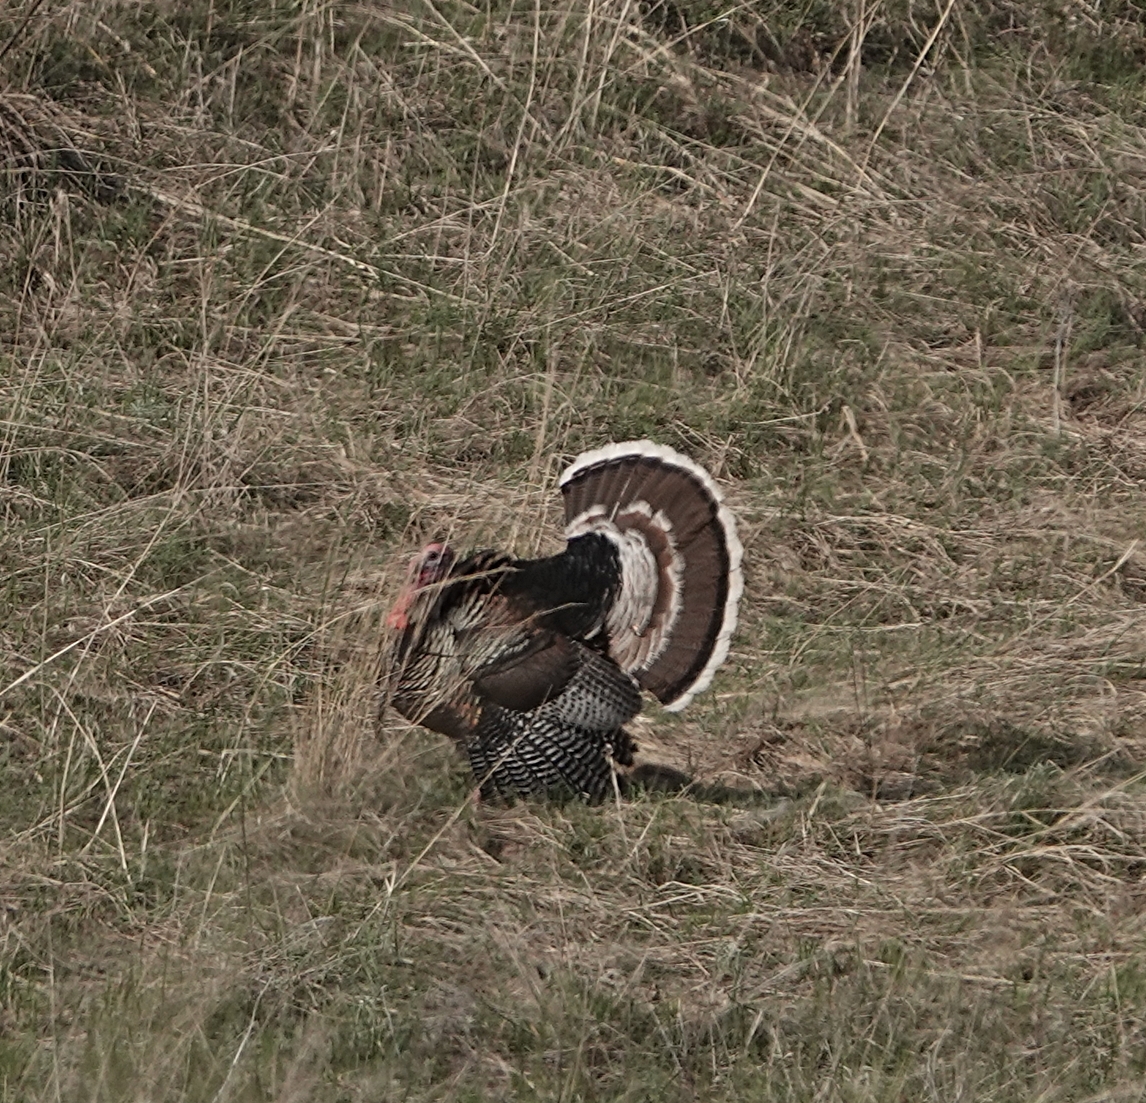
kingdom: Animalia
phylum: Chordata
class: Aves
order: Galliformes
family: Phasianidae
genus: Meleagris
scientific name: Meleagris gallopavo
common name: Wild turkey
